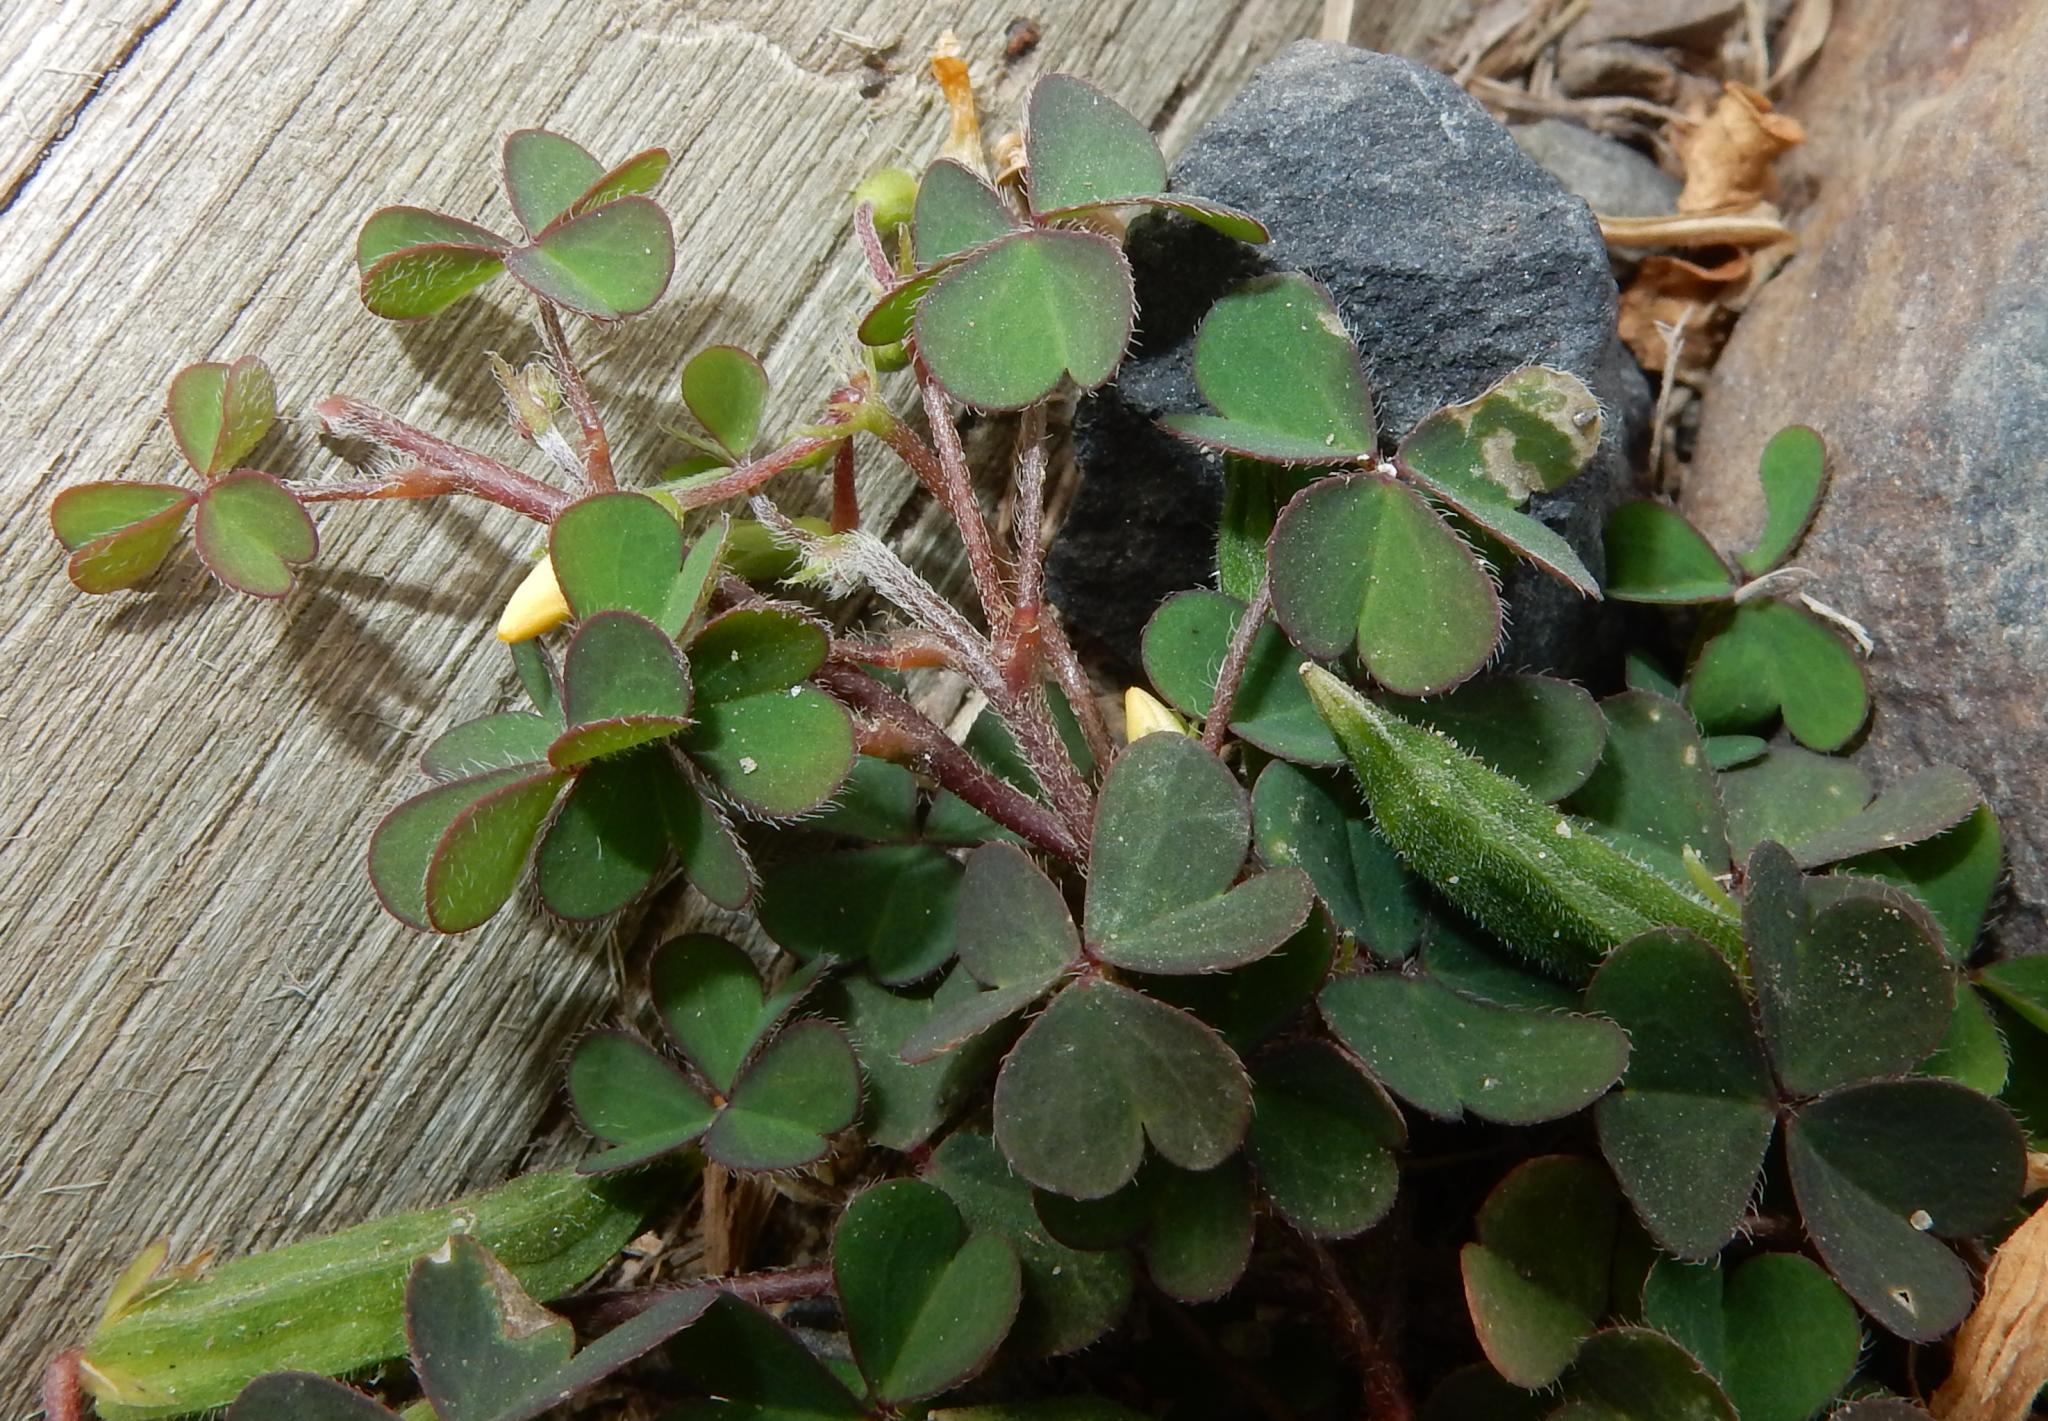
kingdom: Plantae
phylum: Tracheophyta
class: Magnoliopsida
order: Oxalidales
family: Oxalidaceae
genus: Oxalis
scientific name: Oxalis corniculata
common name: Procumbent yellow-sorrel
